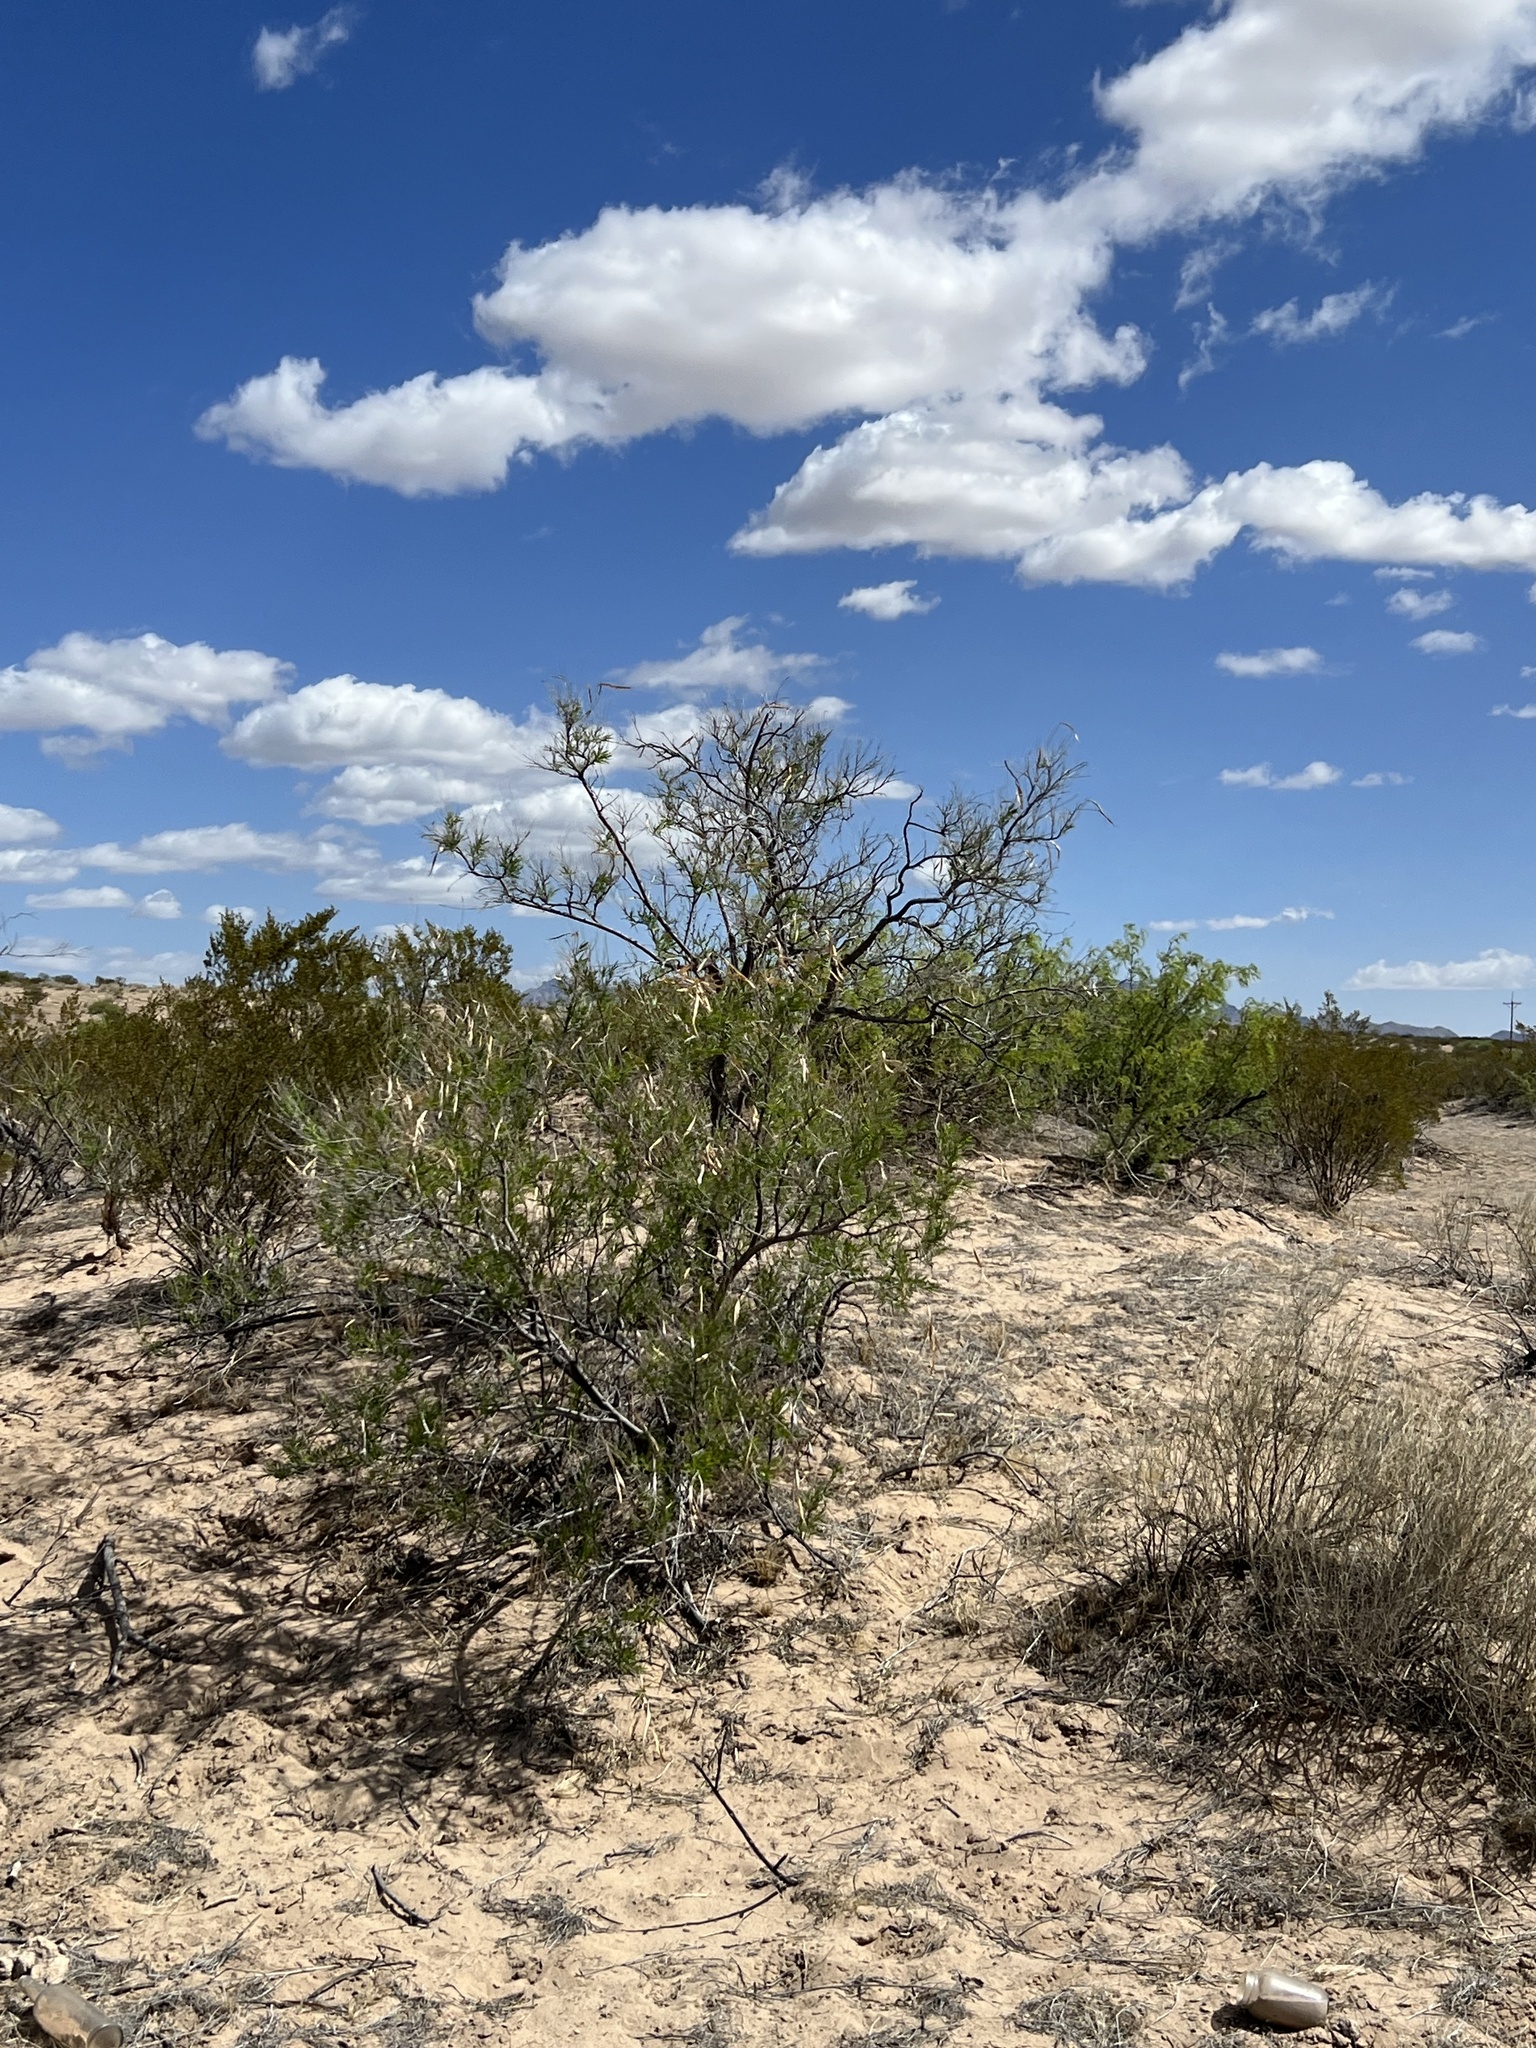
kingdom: Plantae
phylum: Tracheophyta
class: Magnoliopsida
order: Lamiales
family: Bignoniaceae
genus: Chilopsis
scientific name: Chilopsis linearis
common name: Desert-willow
